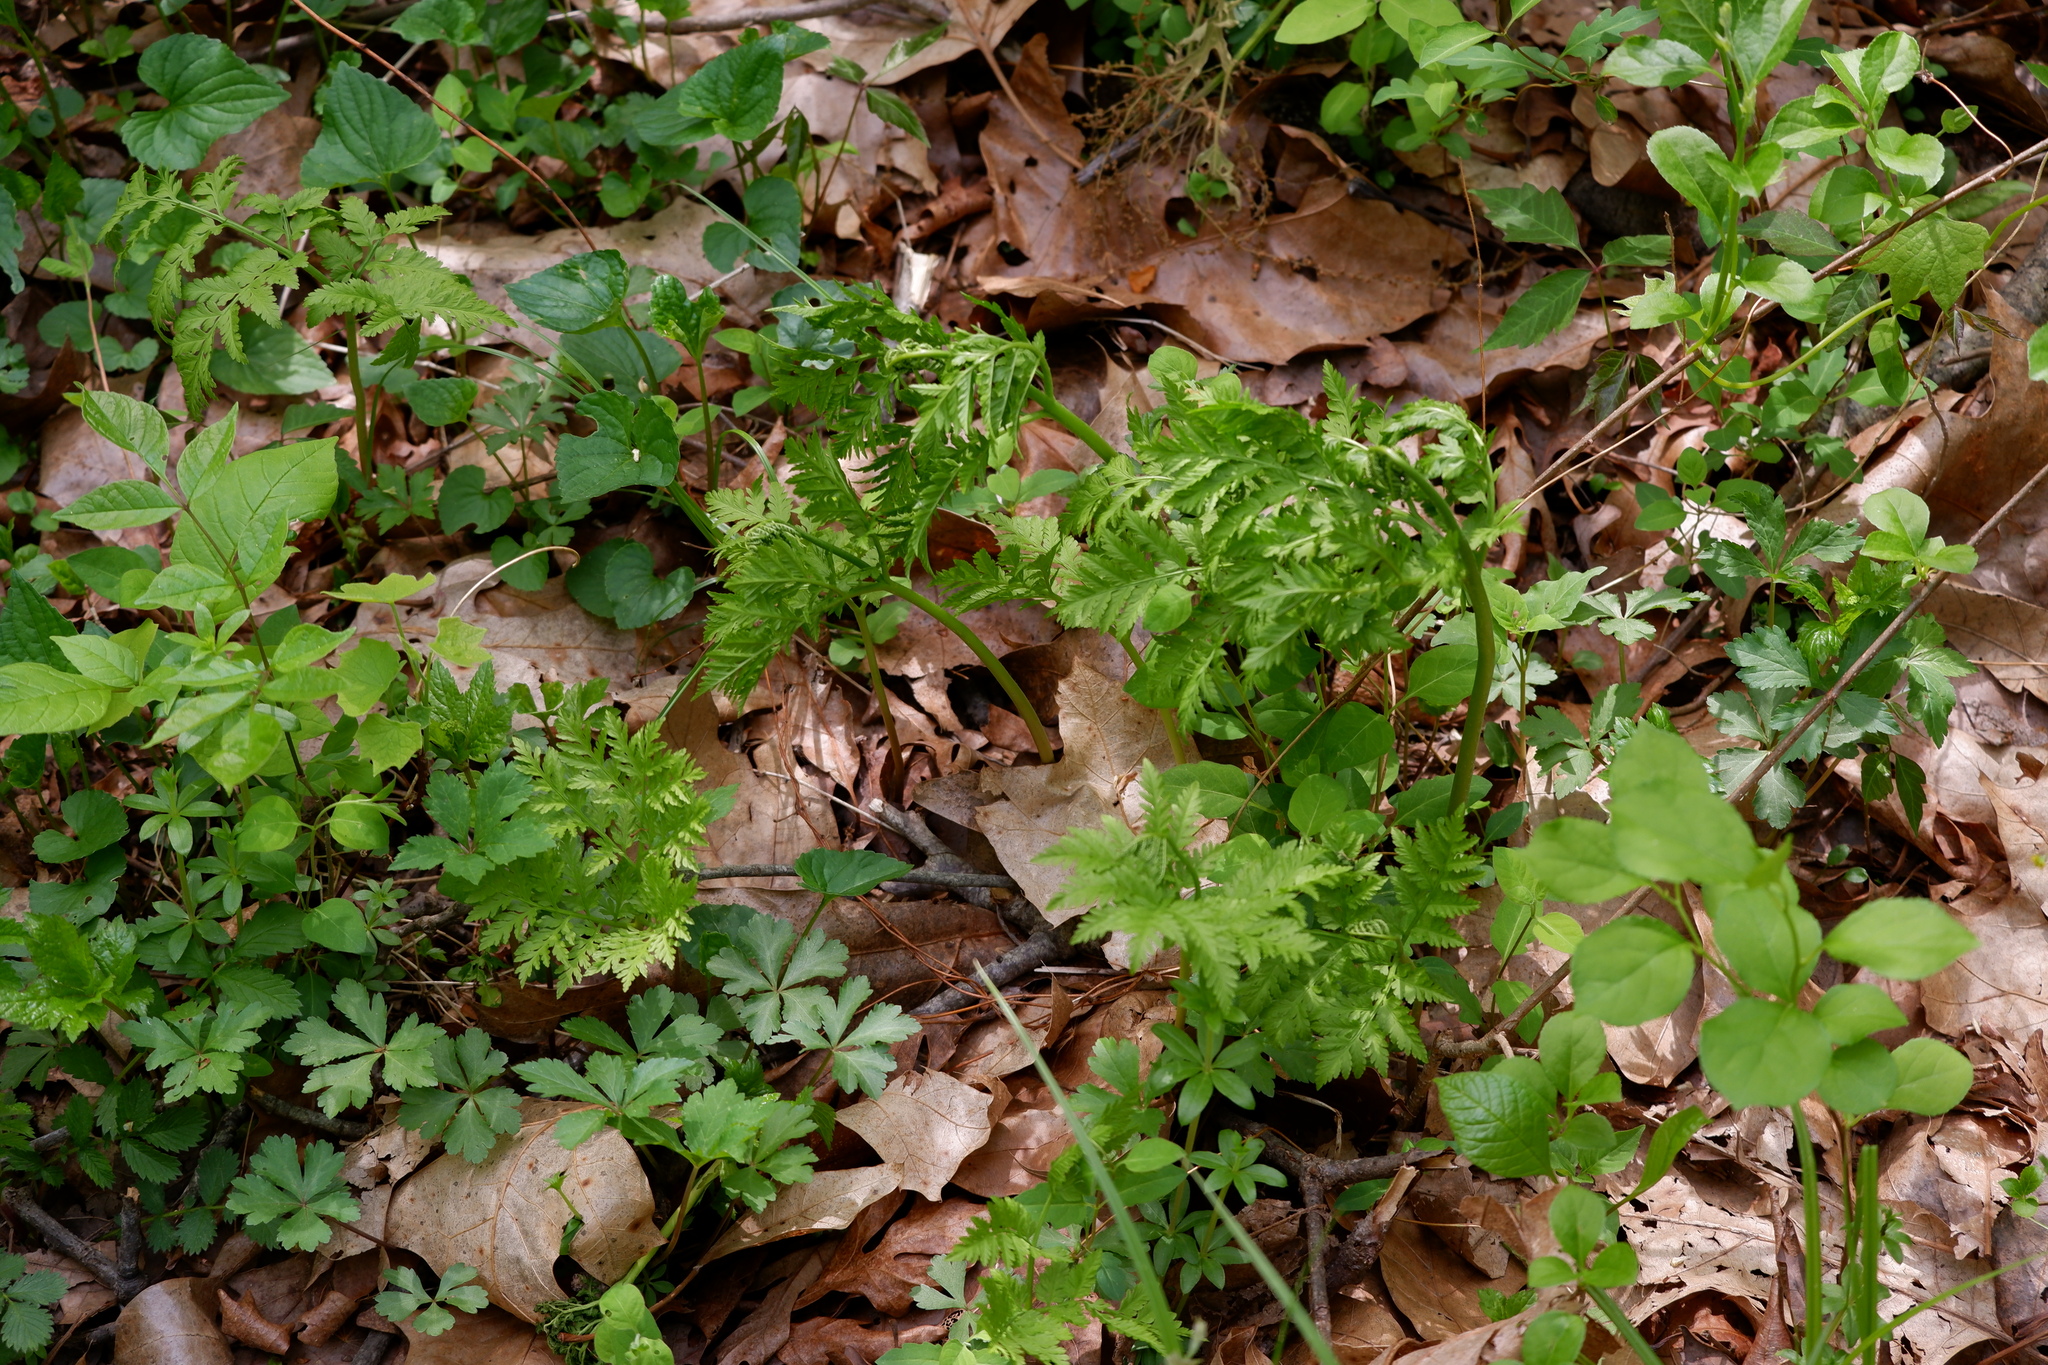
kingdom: Plantae
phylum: Tracheophyta
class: Polypodiopsida
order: Ophioglossales
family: Ophioglossaceae
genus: Botrypus
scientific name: Botrypus virginianus
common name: Common grapefern
